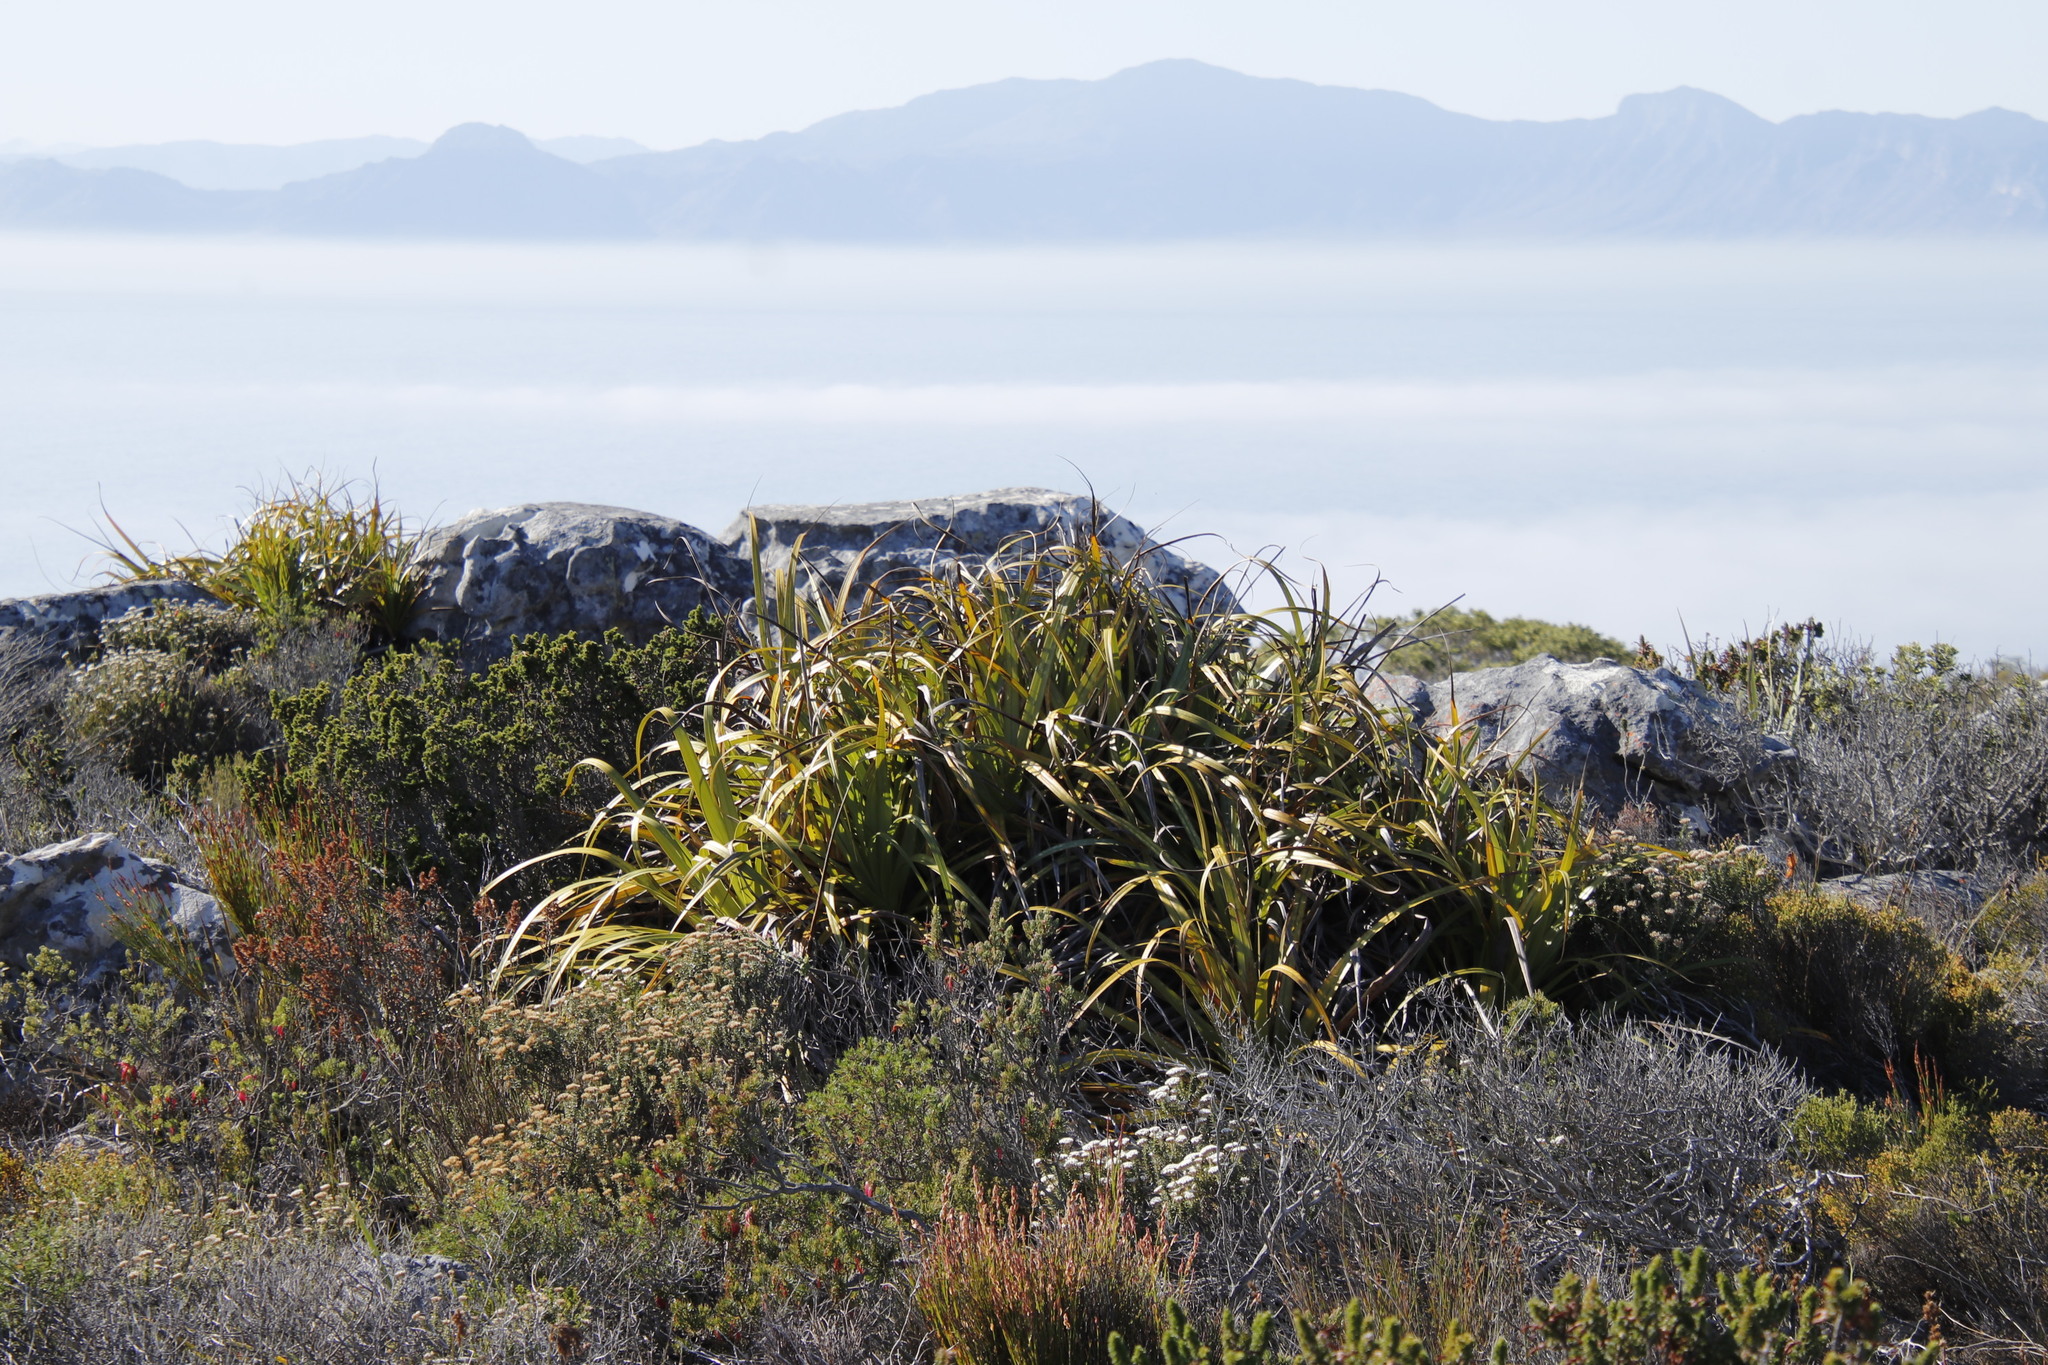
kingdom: Plantae
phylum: Tracheophyta
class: Liliopsida
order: Poales
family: Cyperaceae
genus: Tetraria
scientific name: Tetraria thermalis
